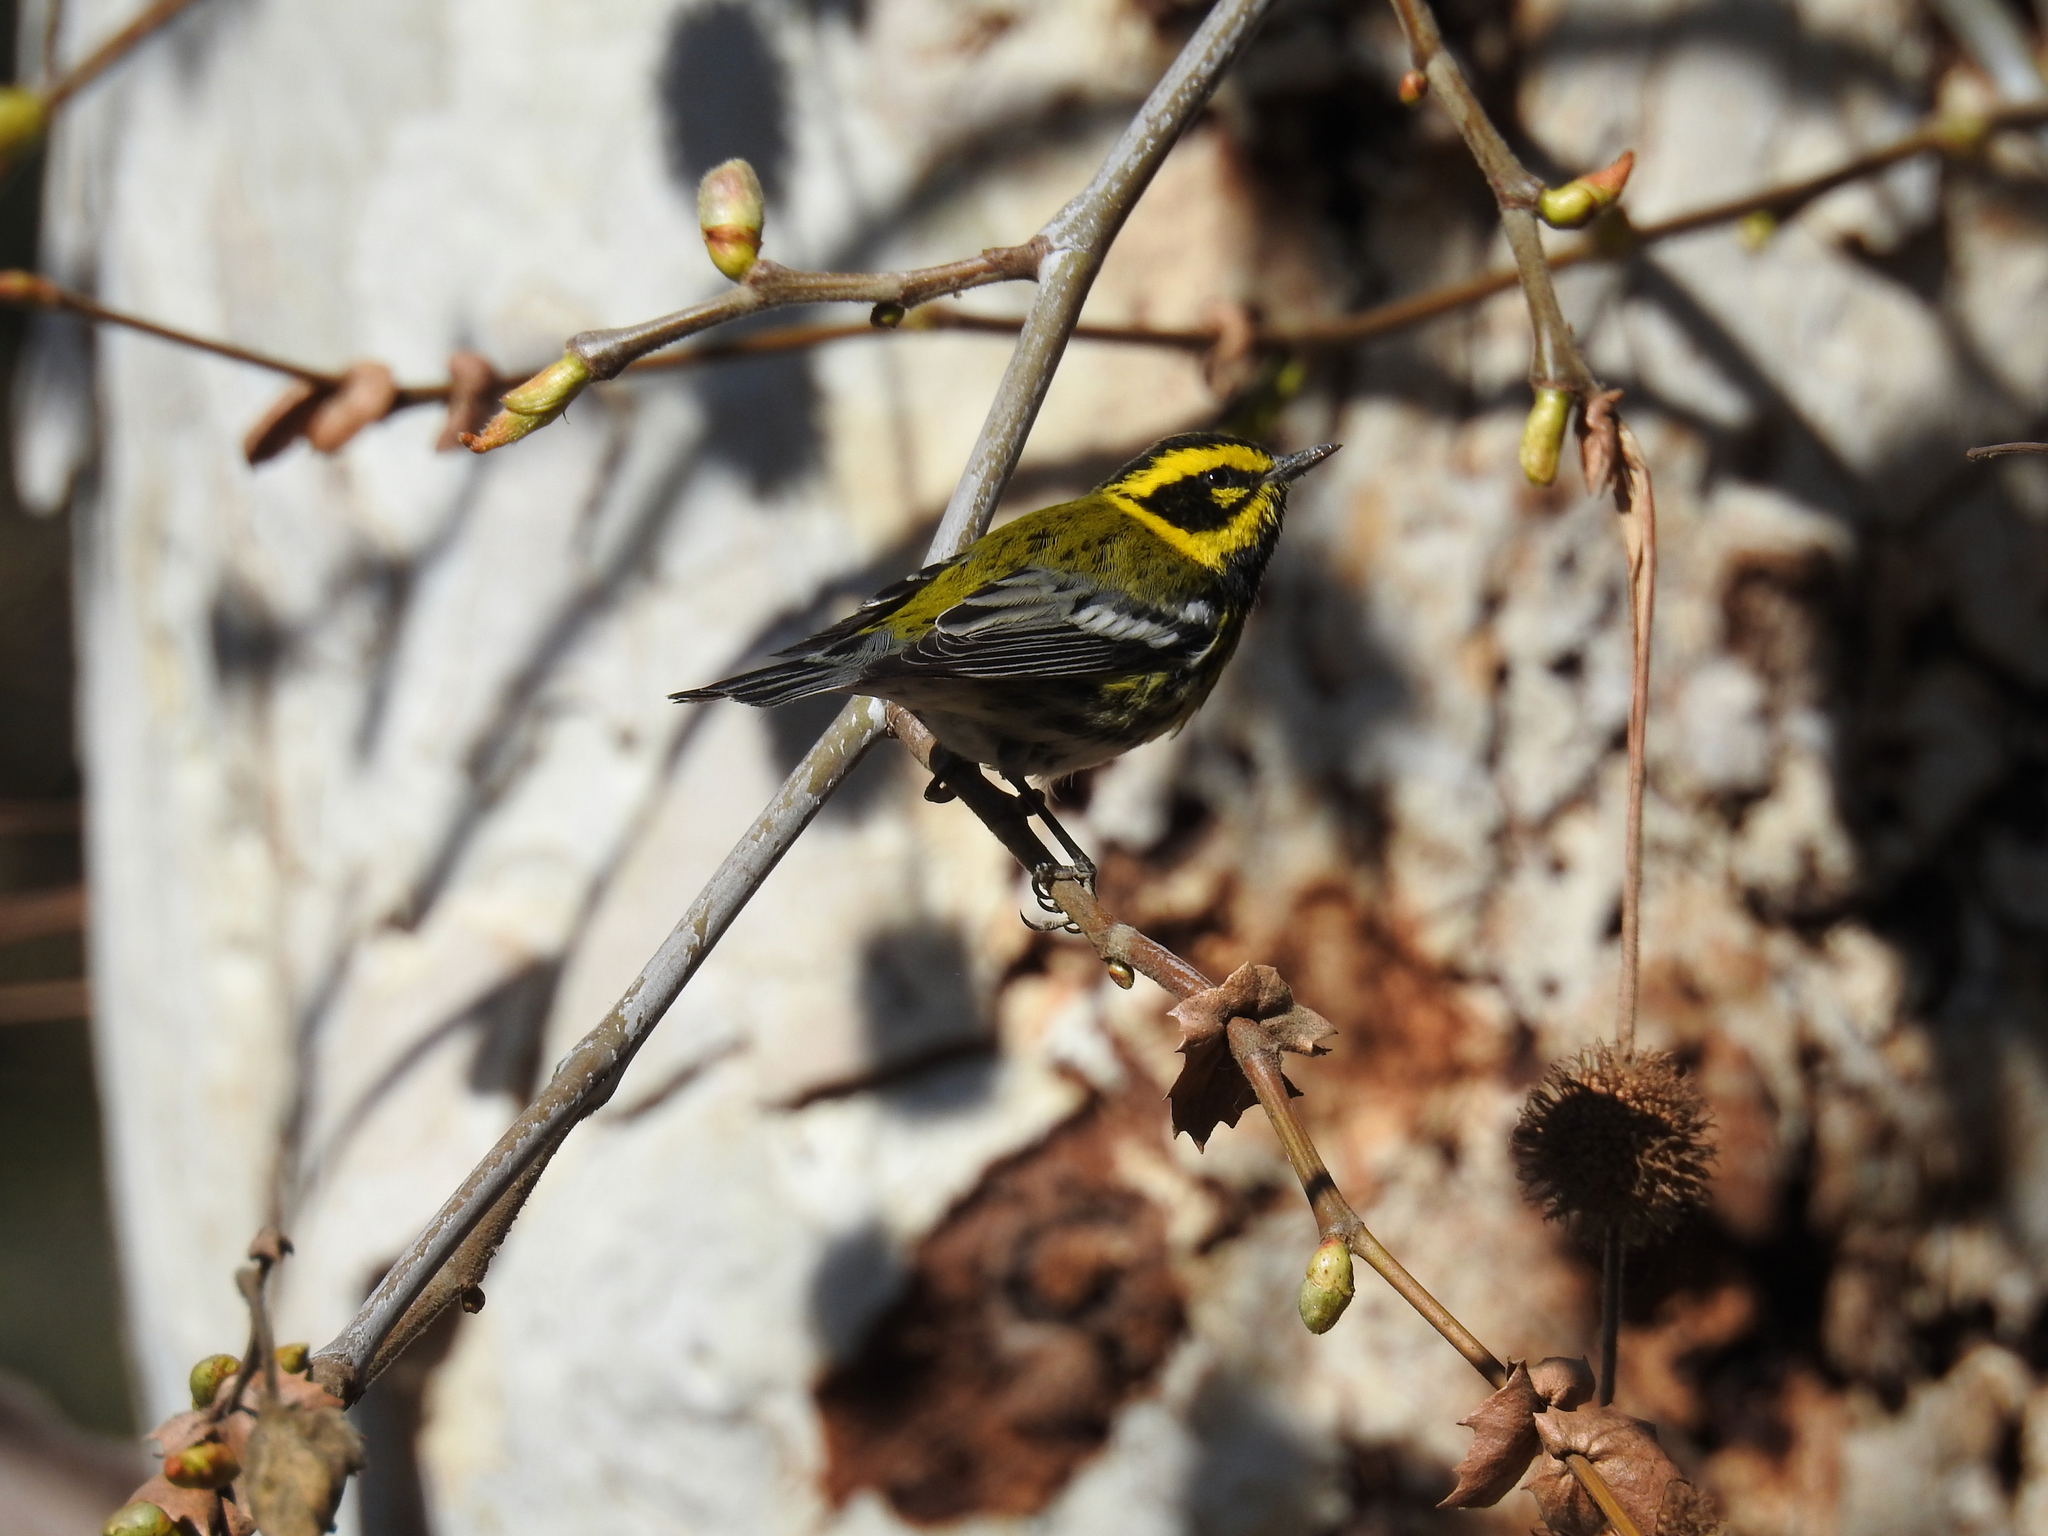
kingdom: Animalia
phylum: Chordata
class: Aves
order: Passeriformes
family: Parulidae
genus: Setophaga
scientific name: Setophaga townsendi
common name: Townsend's warbler
